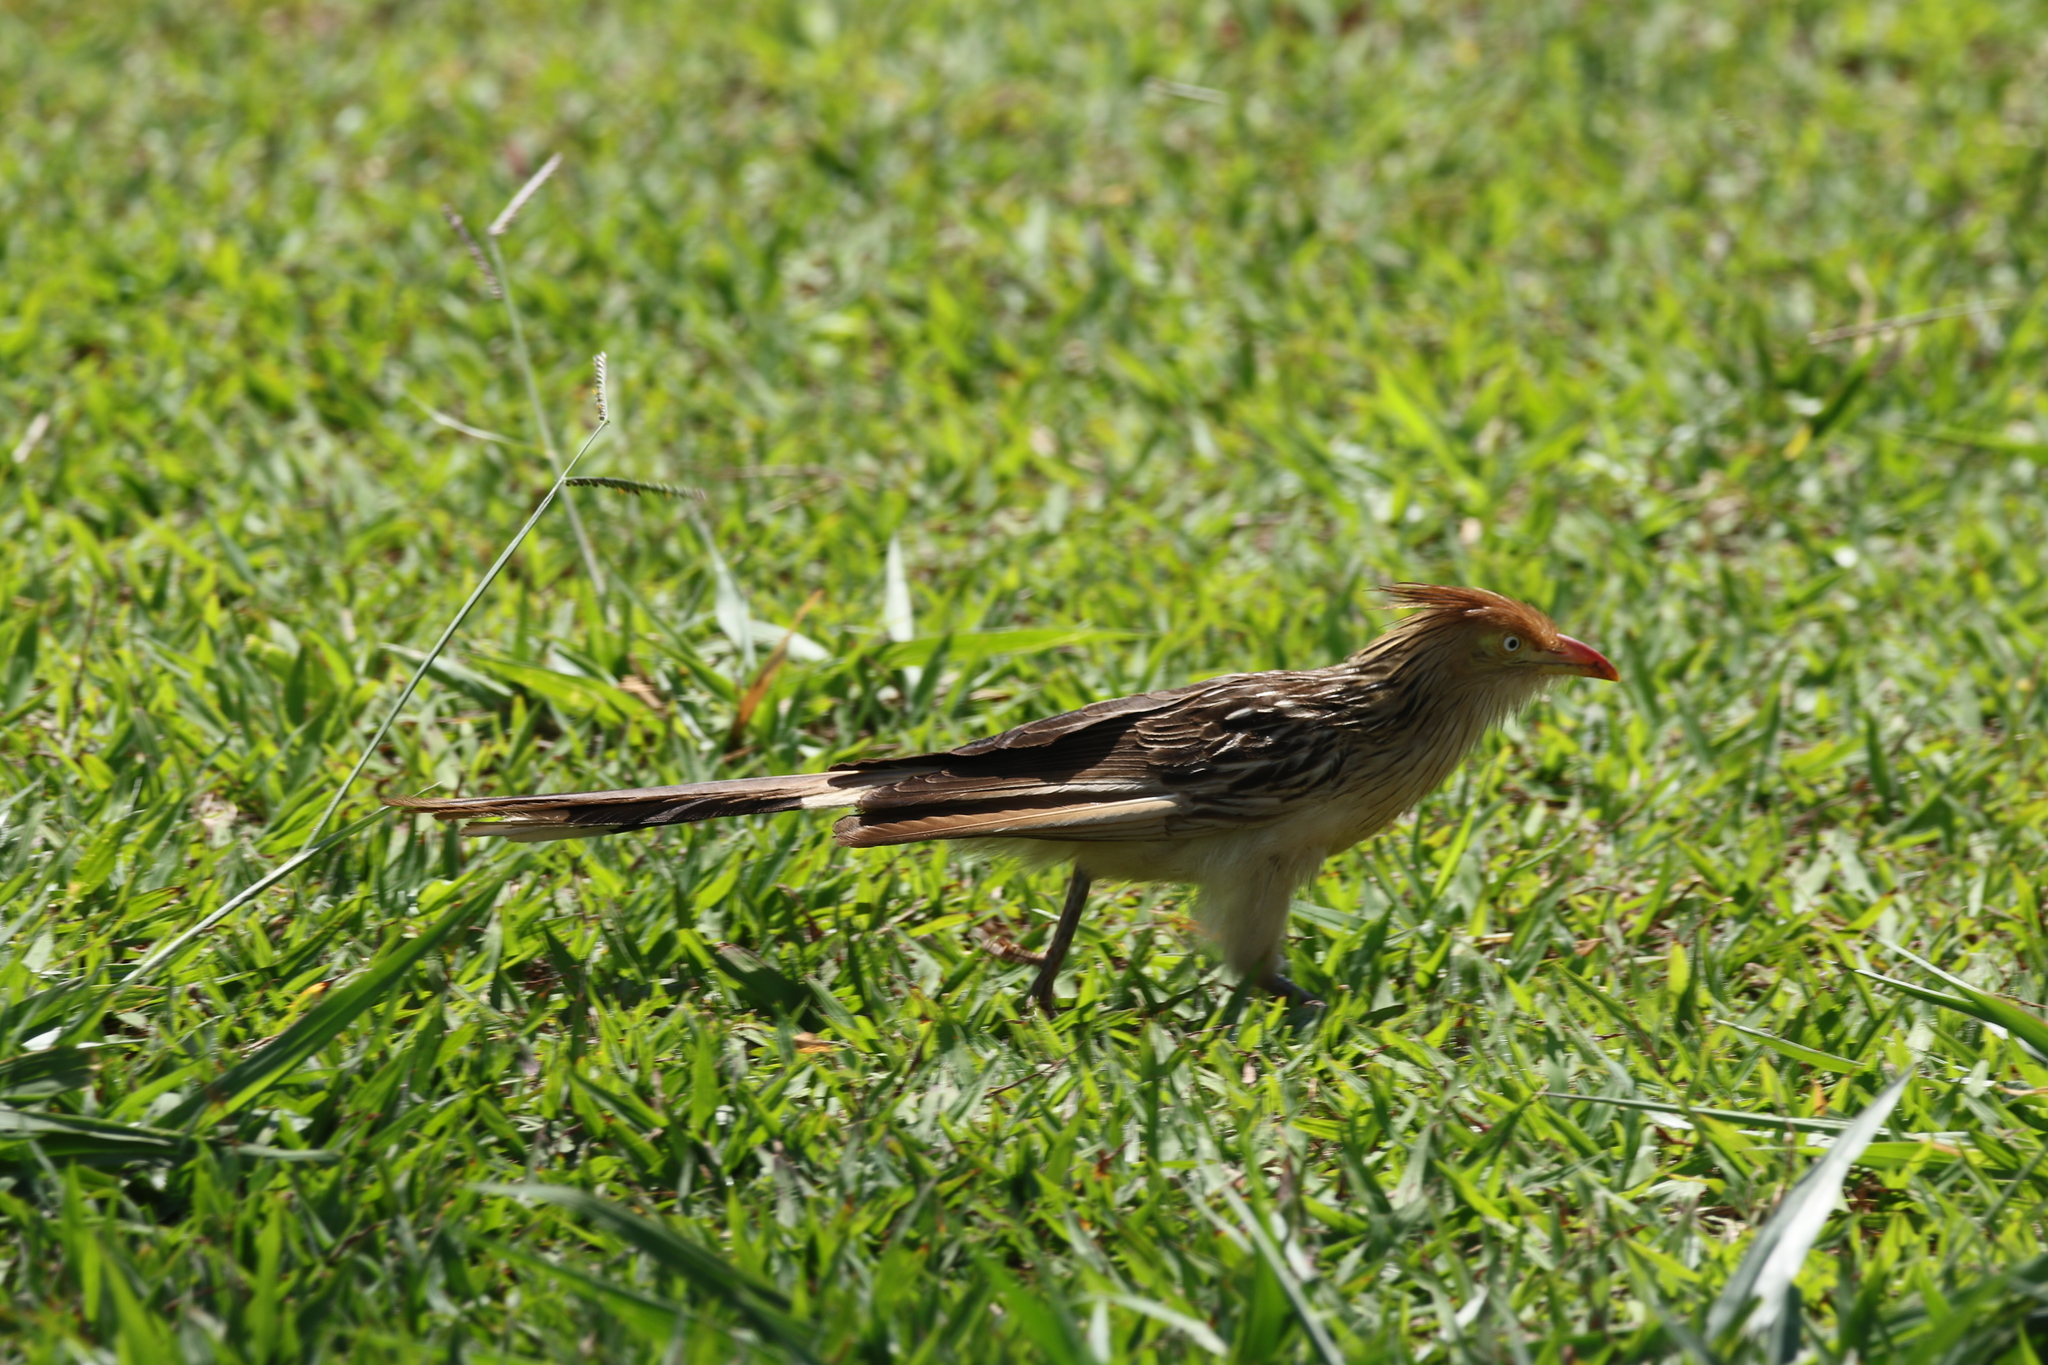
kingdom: Animalia
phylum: Chordata
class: Aves
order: Cuculiformes
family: Cuculidae
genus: Guira
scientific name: Guira guira
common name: Guira cuckoo
